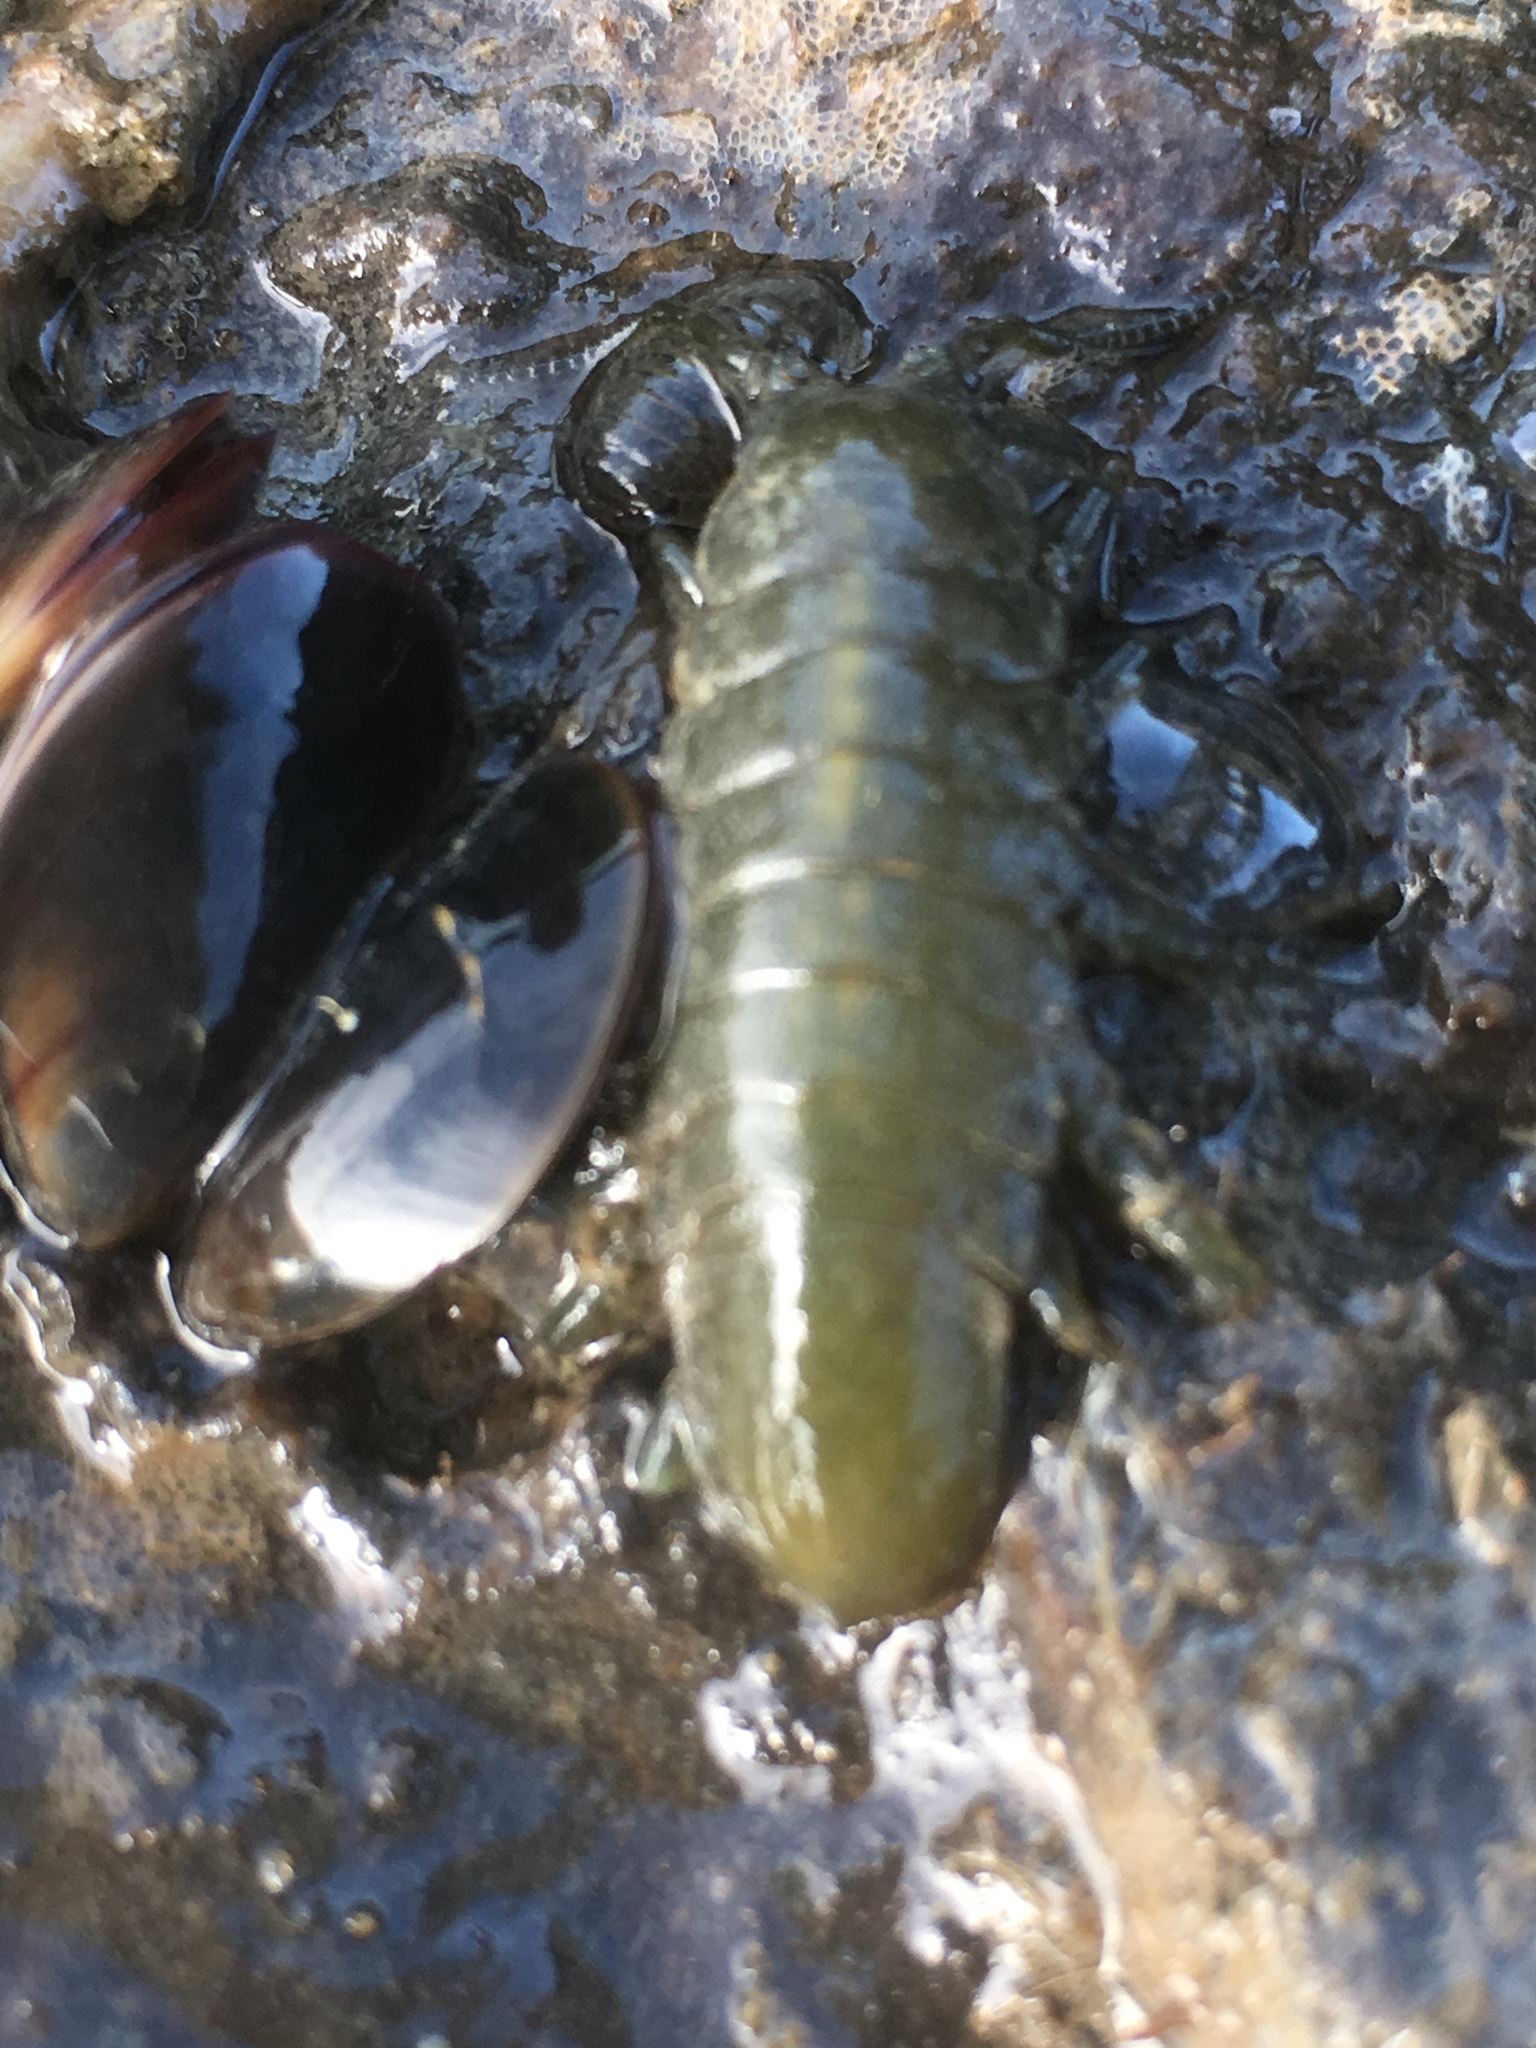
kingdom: Animalia
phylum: Arthropoda
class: Malacostraca
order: Isopoda
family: Idoteidae
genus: Pentidotea
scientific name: Pentidotea wosnesenskii
